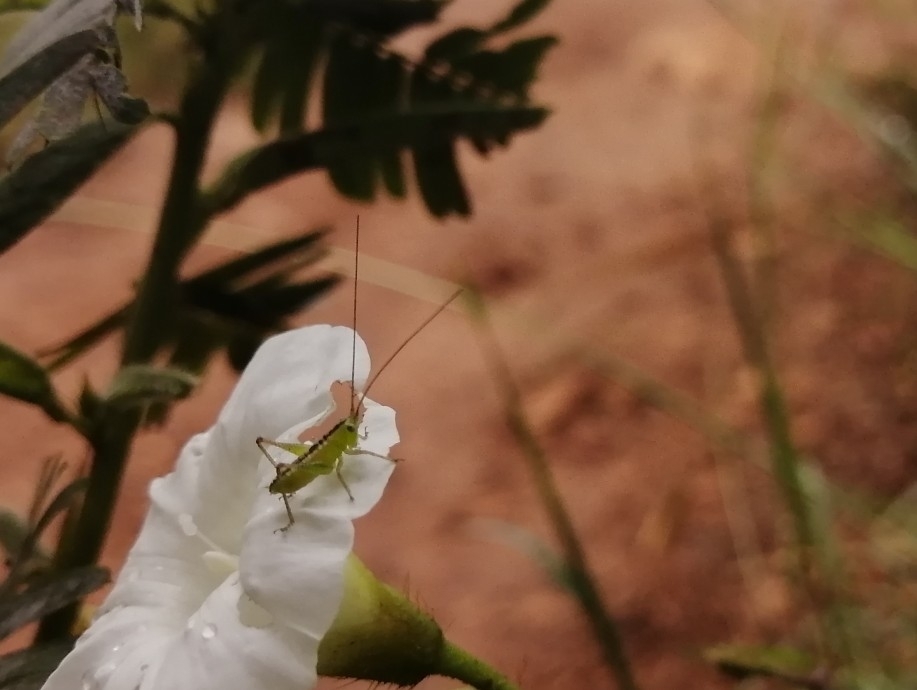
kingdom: Animalia
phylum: Arthropoda
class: Insecta
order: Orthoptera
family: Tettigoniidae
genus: Conocephalus
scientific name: Conocephalus ictus
